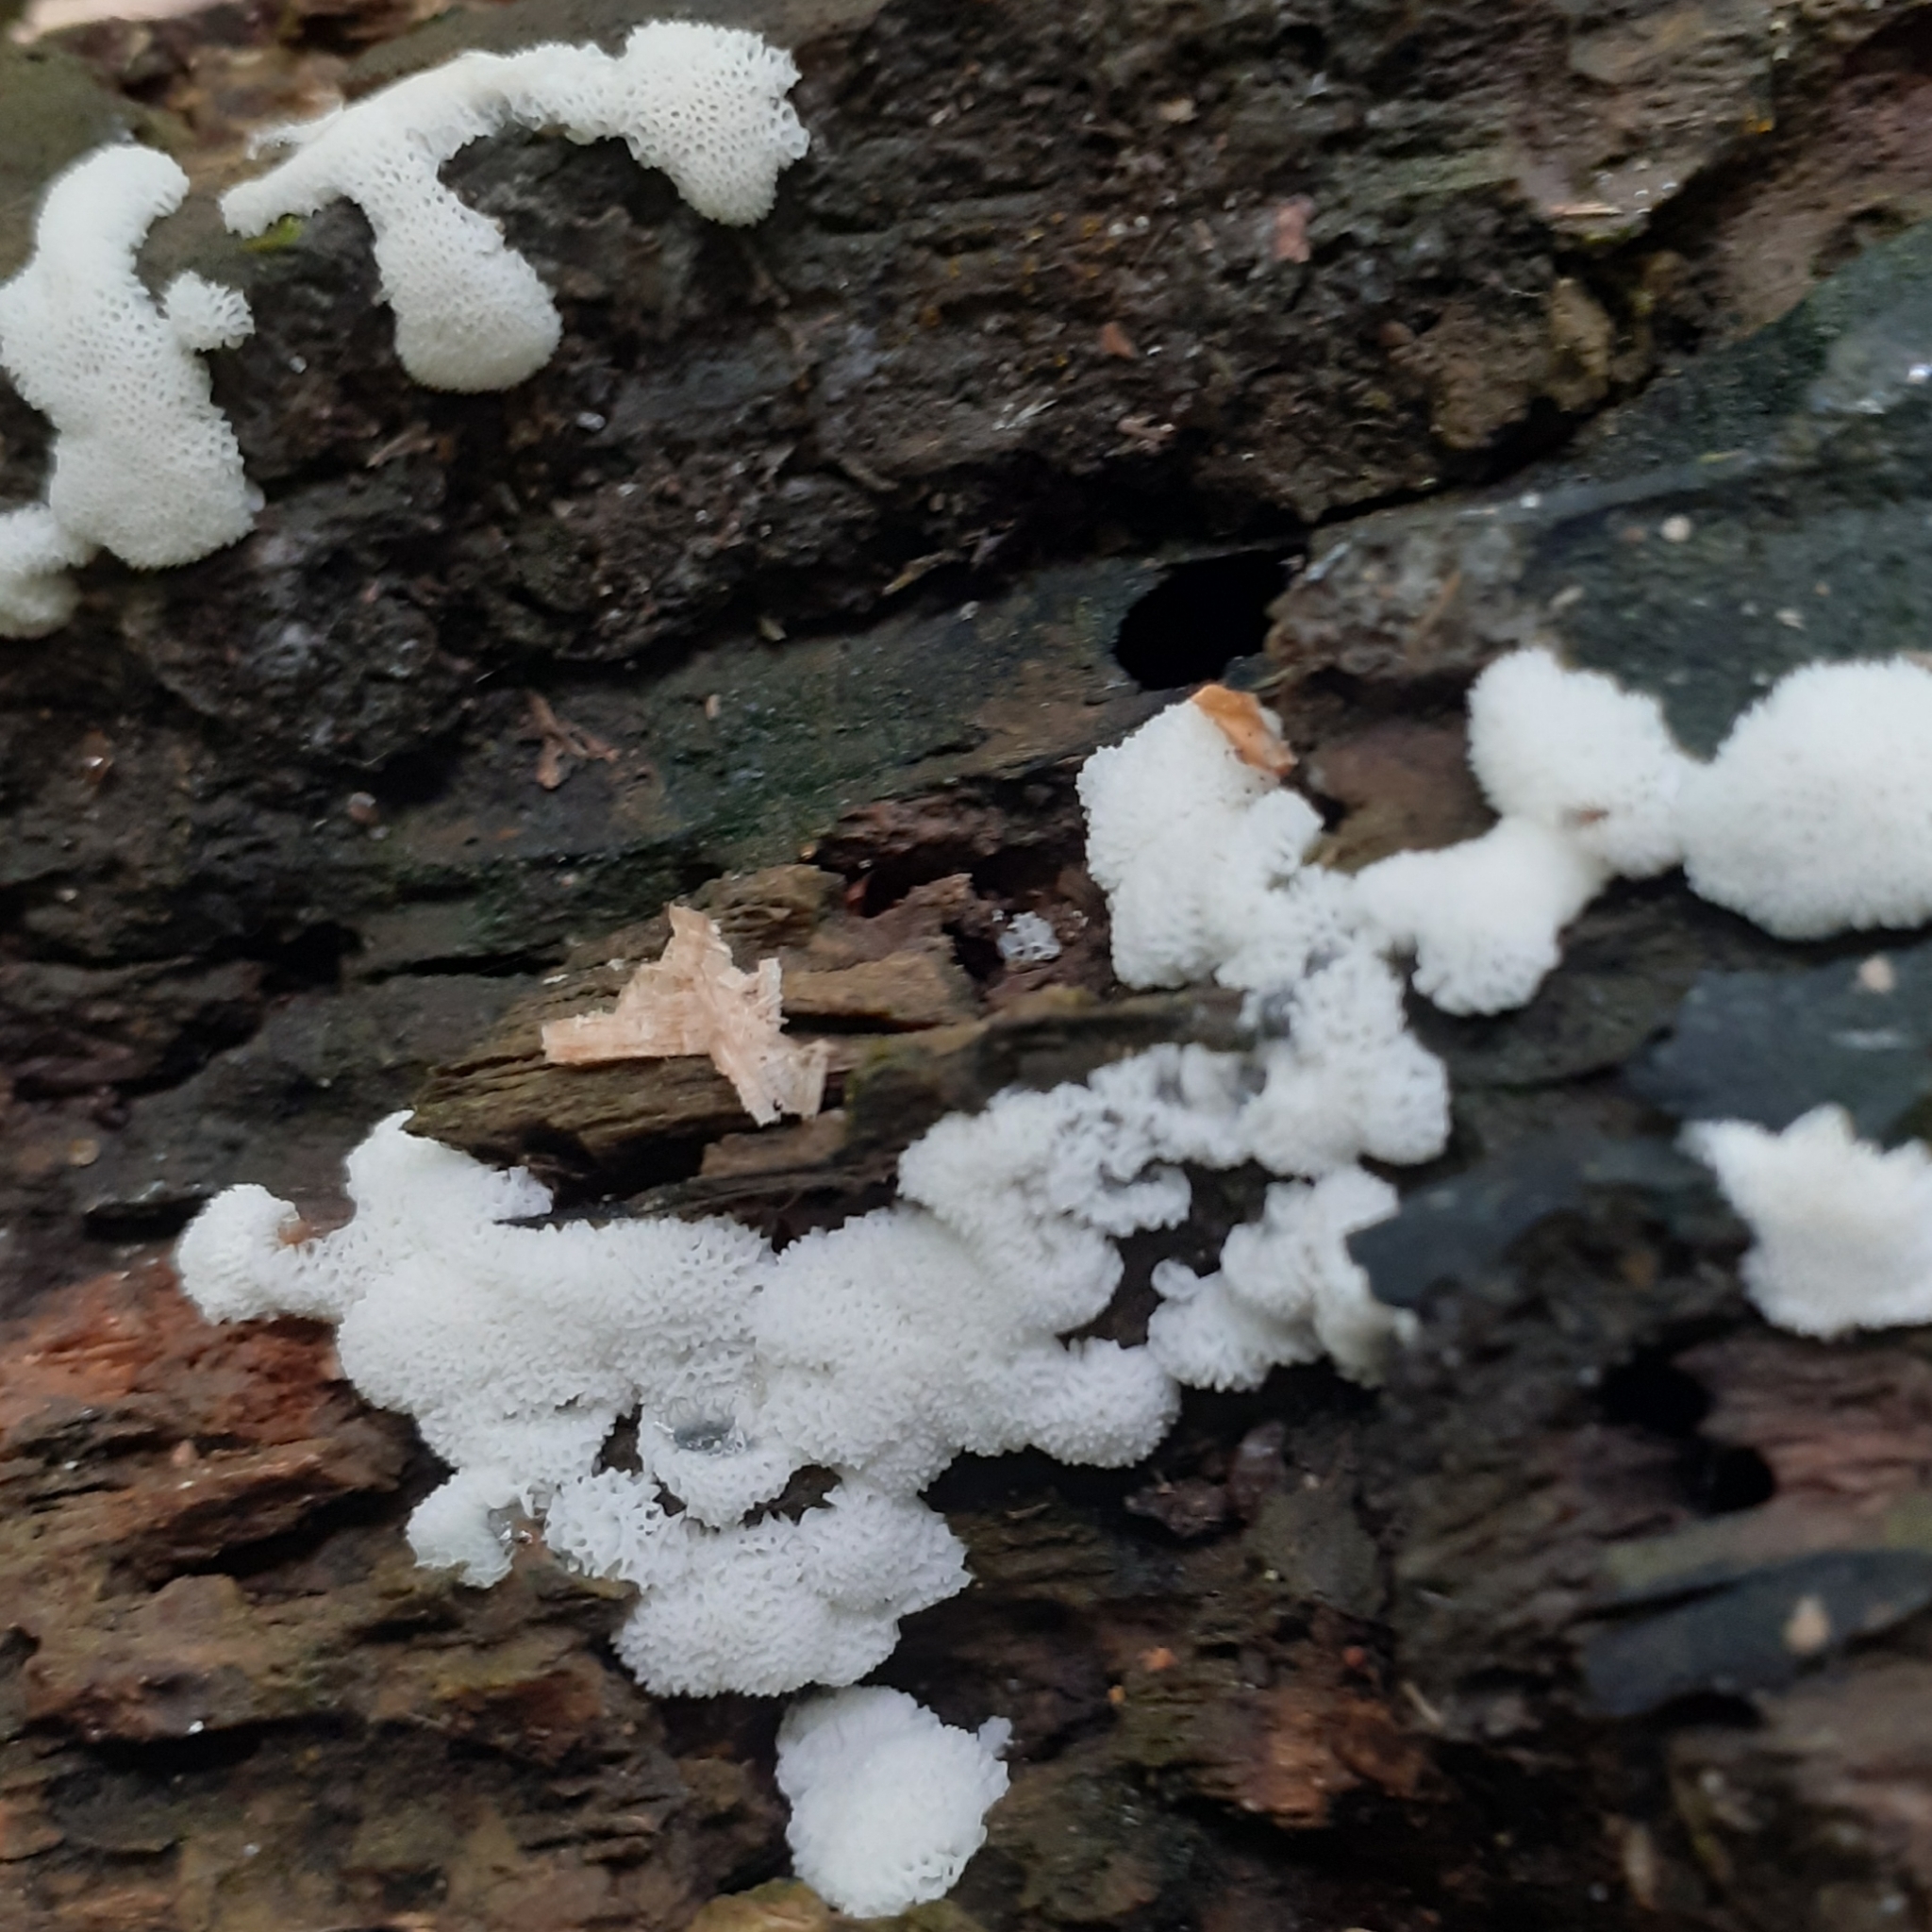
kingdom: Protozoa
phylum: Mycetozoa
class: Protosteliomycetes
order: Ceratiomyxales
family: Ceratiomyxaceae
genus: Ceratiomyxa
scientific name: Ceratiomyxa fruticulosa
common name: Honeycomb coral slime mold
